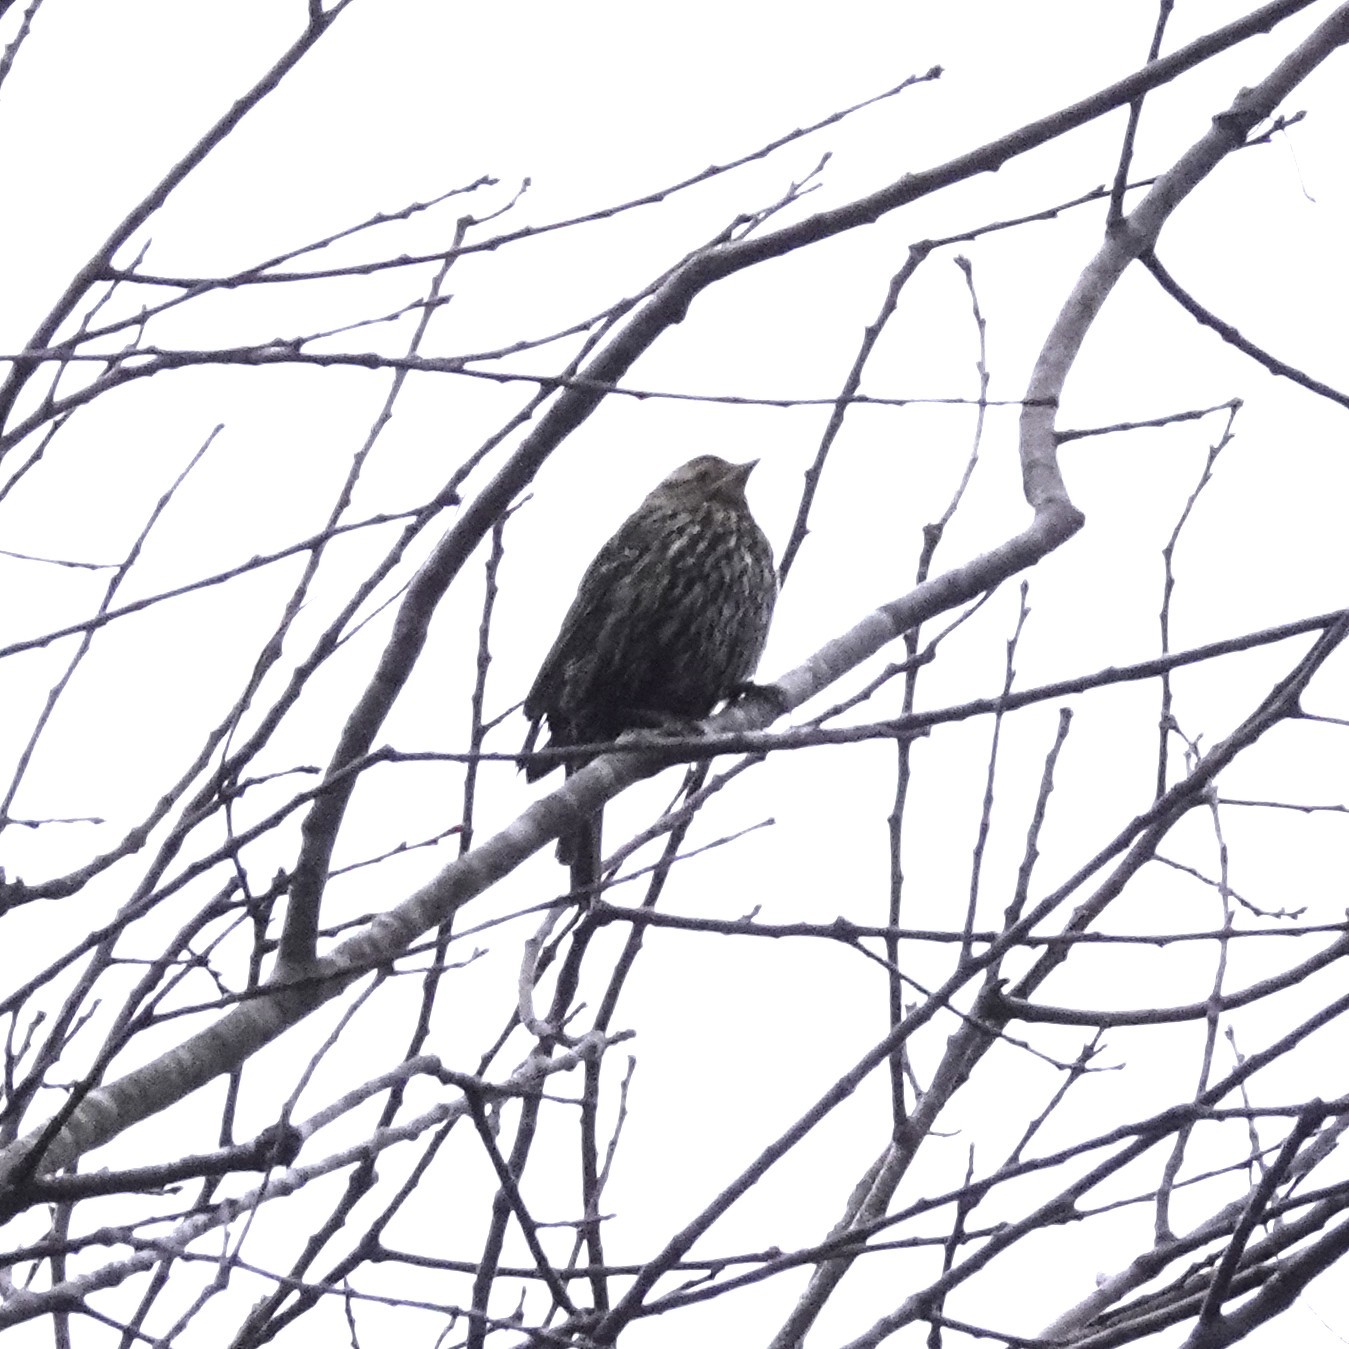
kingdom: Animalia
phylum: Chordata
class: Aves
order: Passeriformes
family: Icteridae
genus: Agelaius
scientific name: Agelaius phoeniceus
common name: Red-winged blackbird
